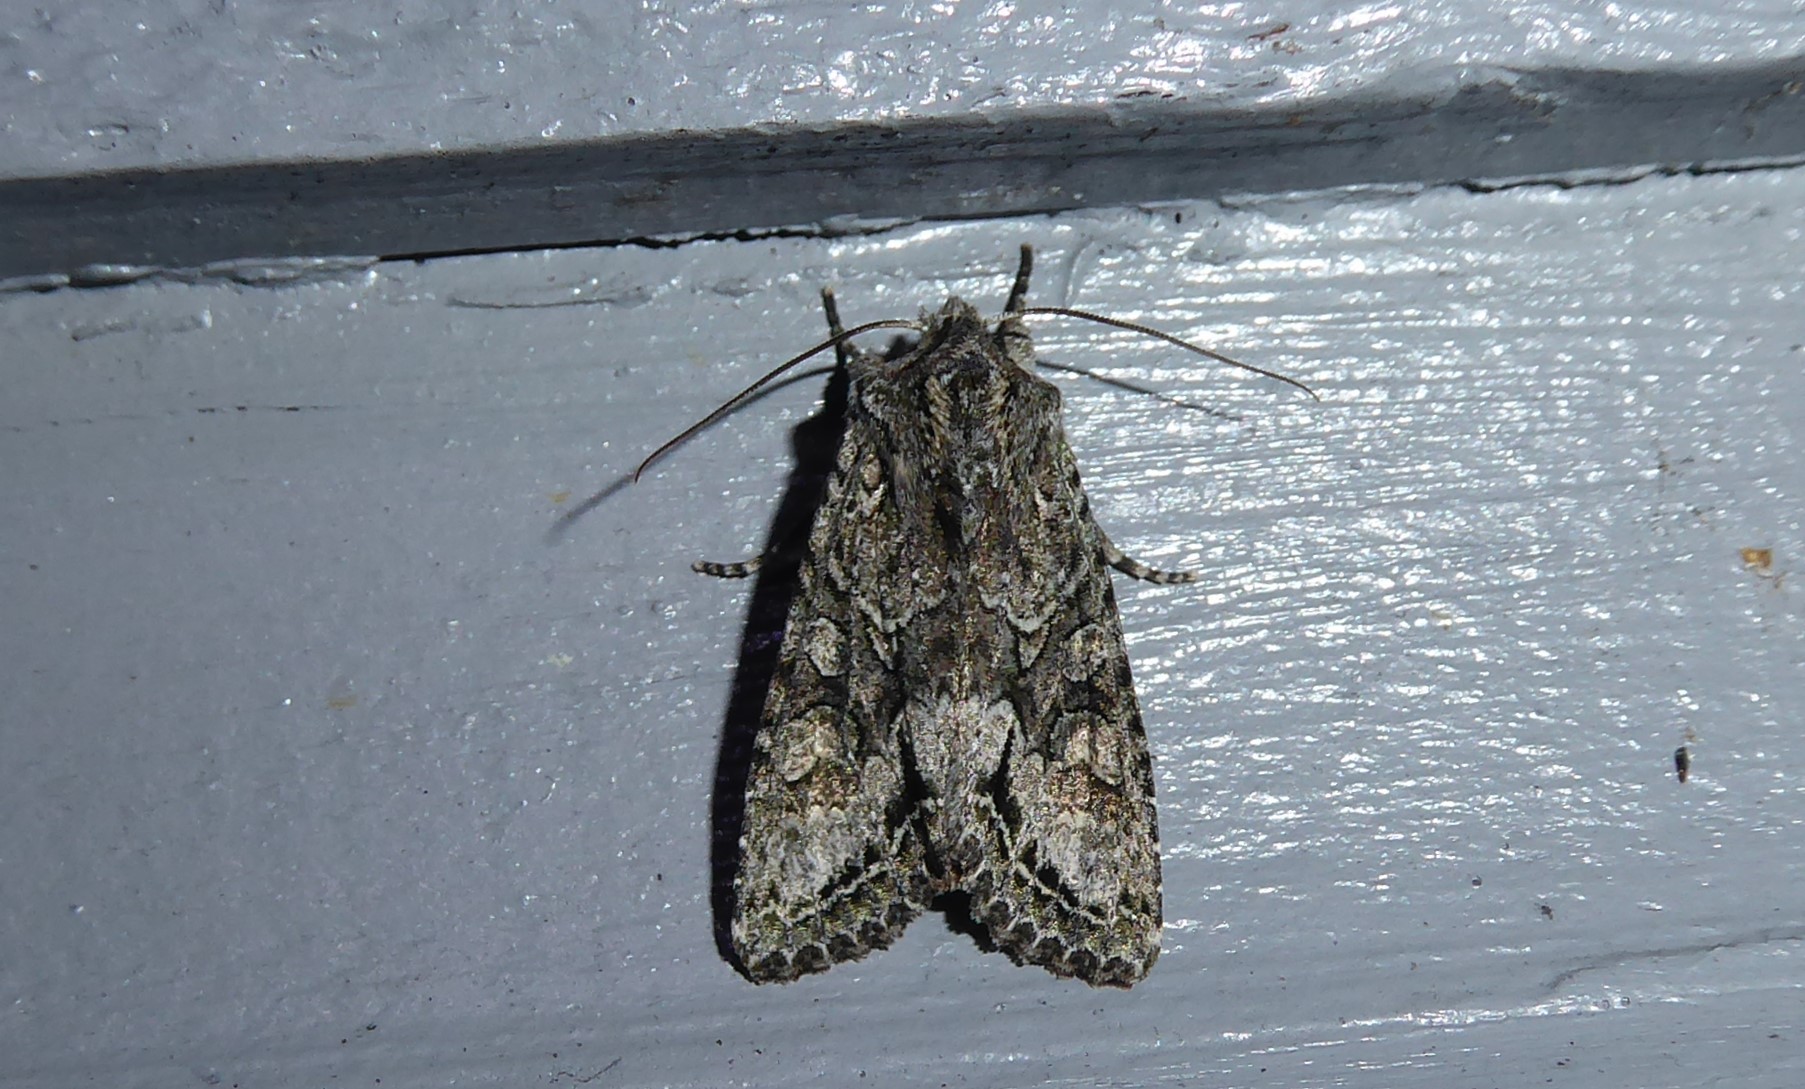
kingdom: Animalia
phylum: Arthropoda
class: Insecta
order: Lepidoptera
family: Noctuidae
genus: Ichneutica
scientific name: Ichneutica mutans
